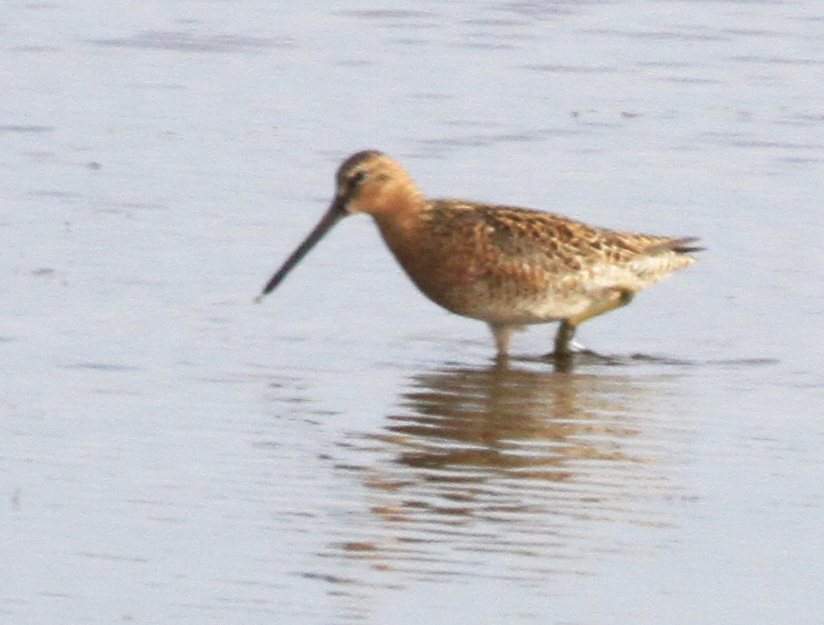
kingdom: Animalia
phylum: Chordata
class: Aves
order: Charadriiformes
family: Scolopacidae
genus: Limnodromus
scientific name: Limnodromus griseus
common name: Short-billed dowitcher
